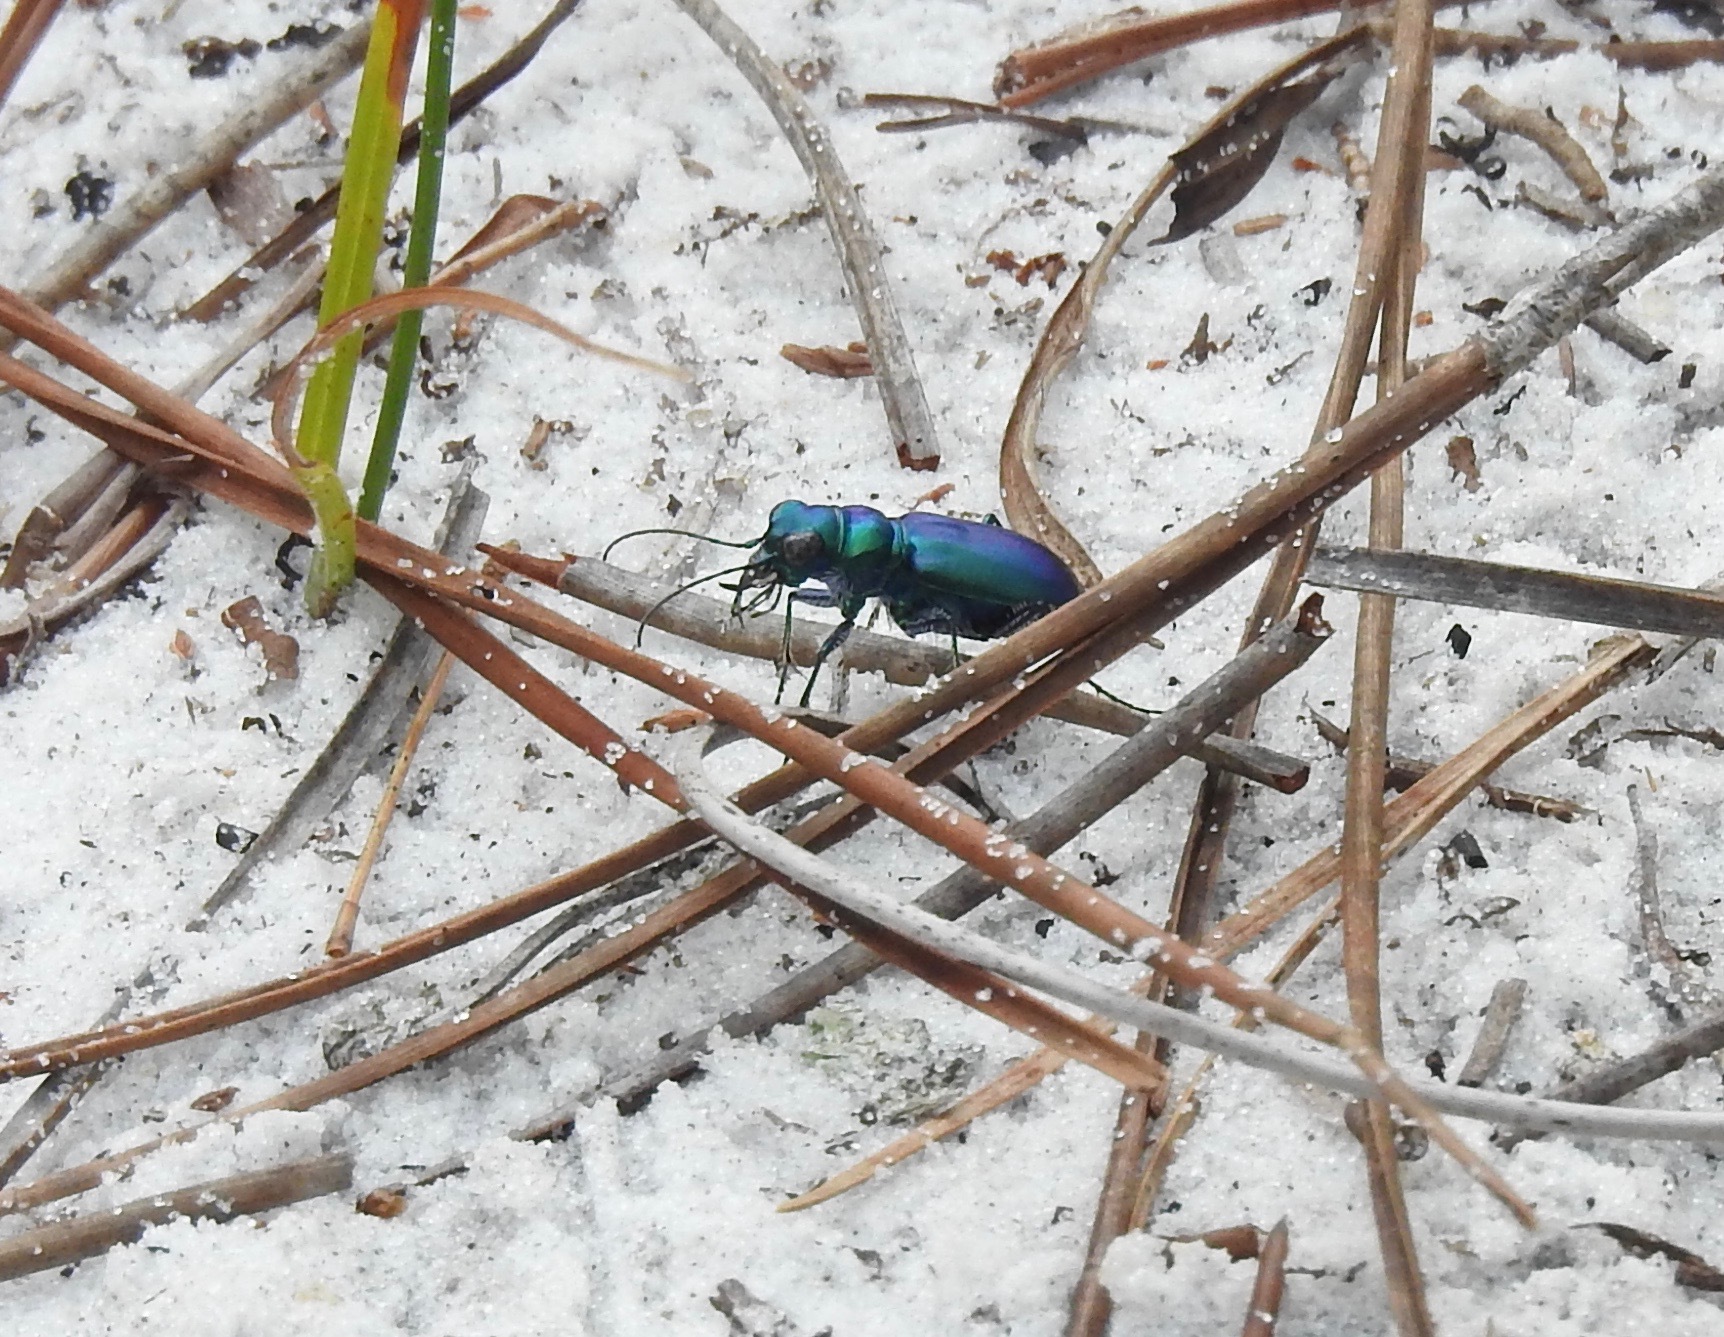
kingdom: Animalia
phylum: Arthropoda
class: Insecta
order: Coleoptera
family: Carabidae
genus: Cicindela
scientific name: Cicindela scutellaris
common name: Festive tiger beetle
